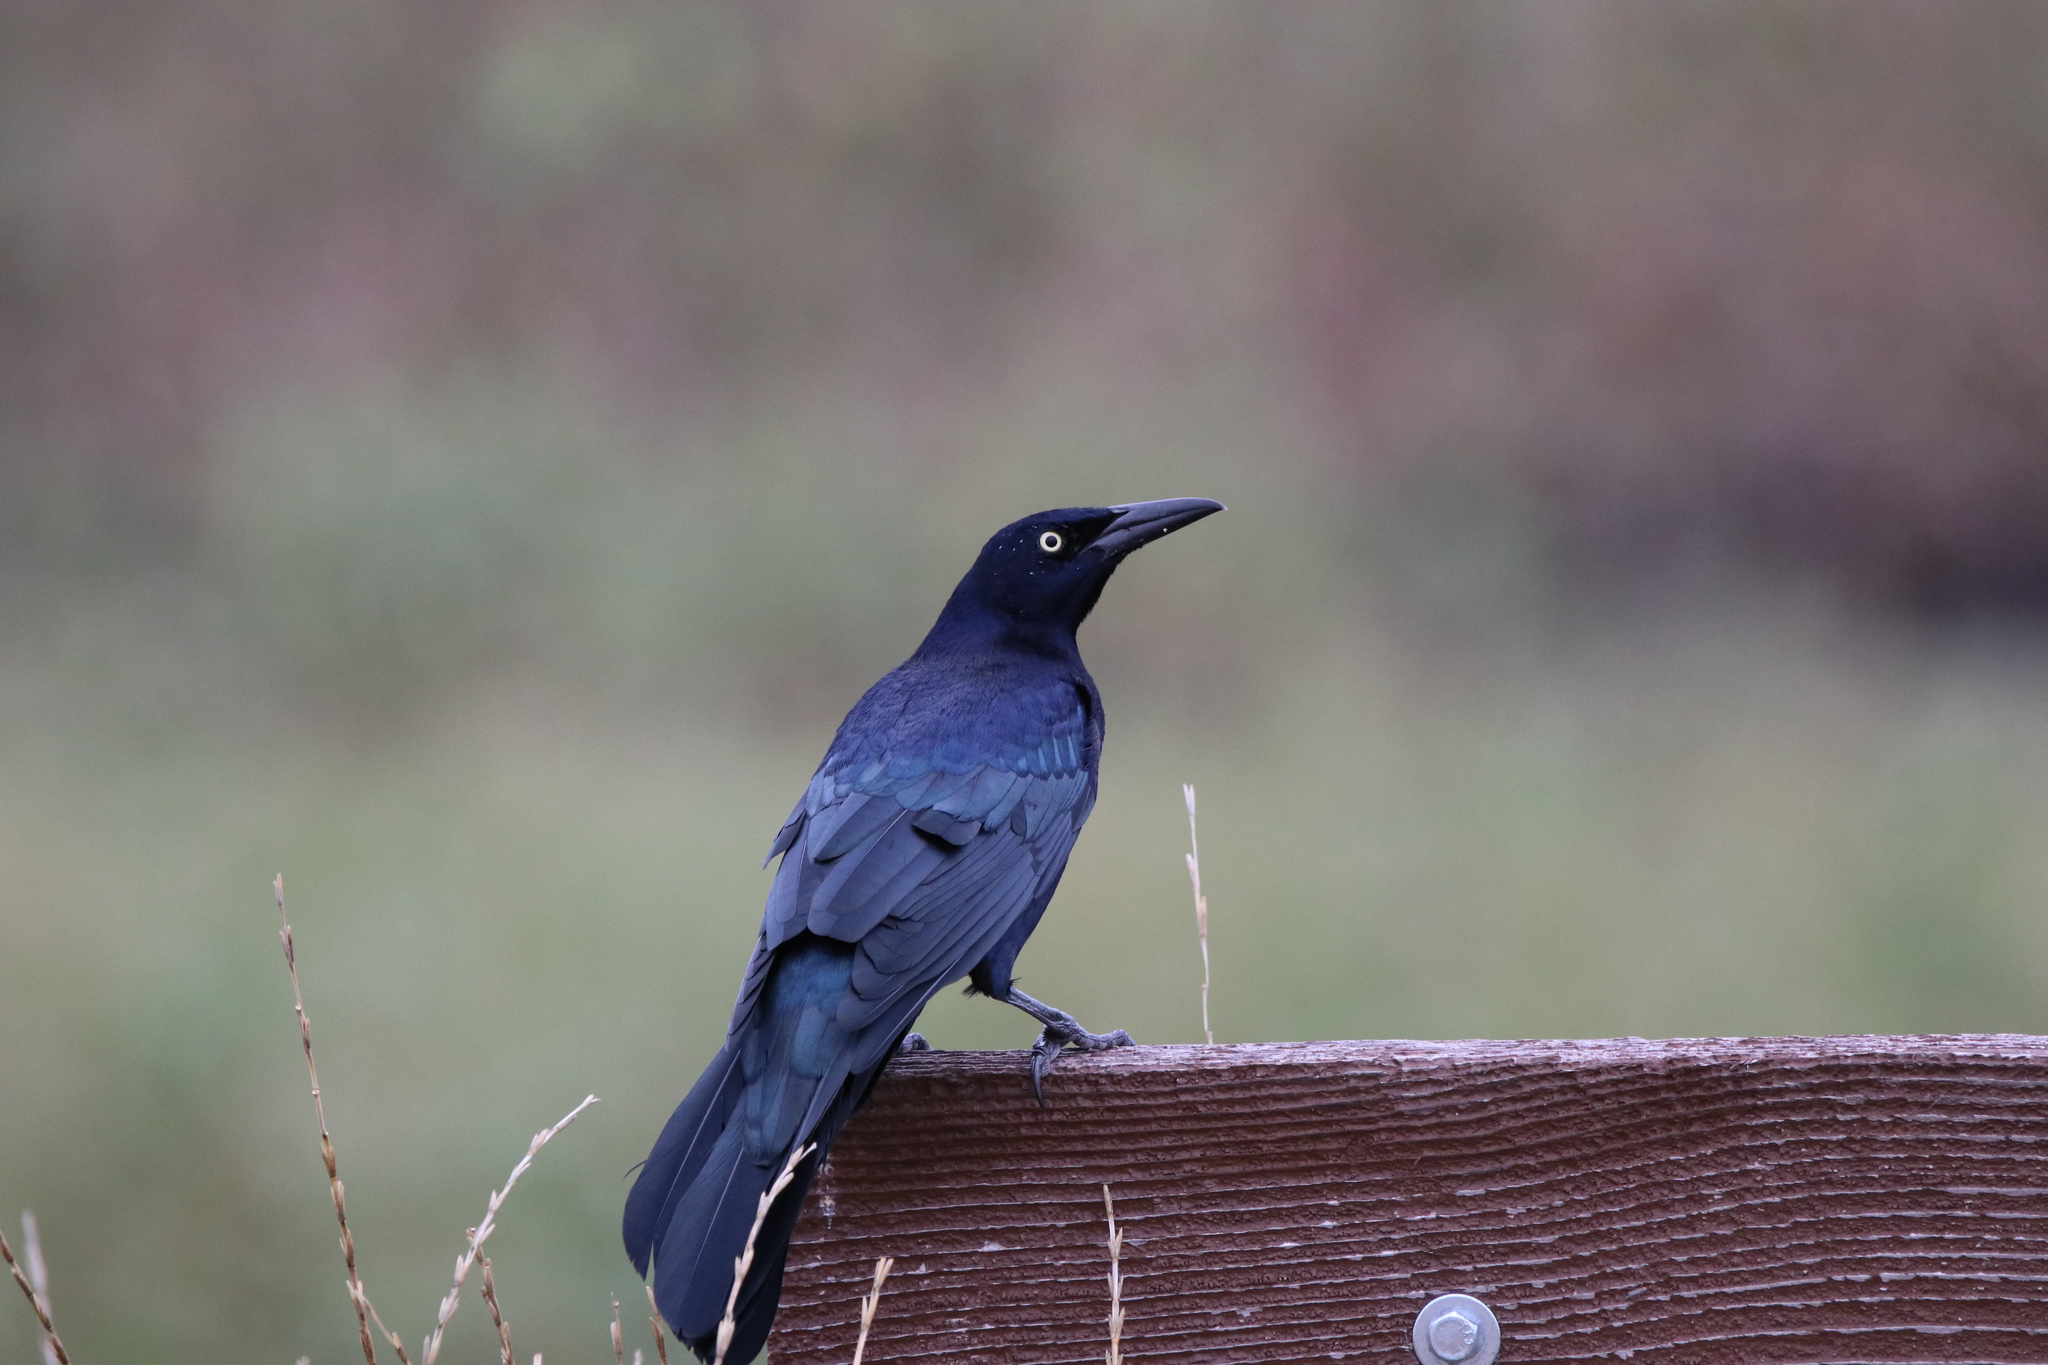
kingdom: Animalia
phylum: Chordata
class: Aves
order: Passeriformes
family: Icteridae
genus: Quiscalus
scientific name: Quiscalus mexicanus
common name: Great-tailed grackle
